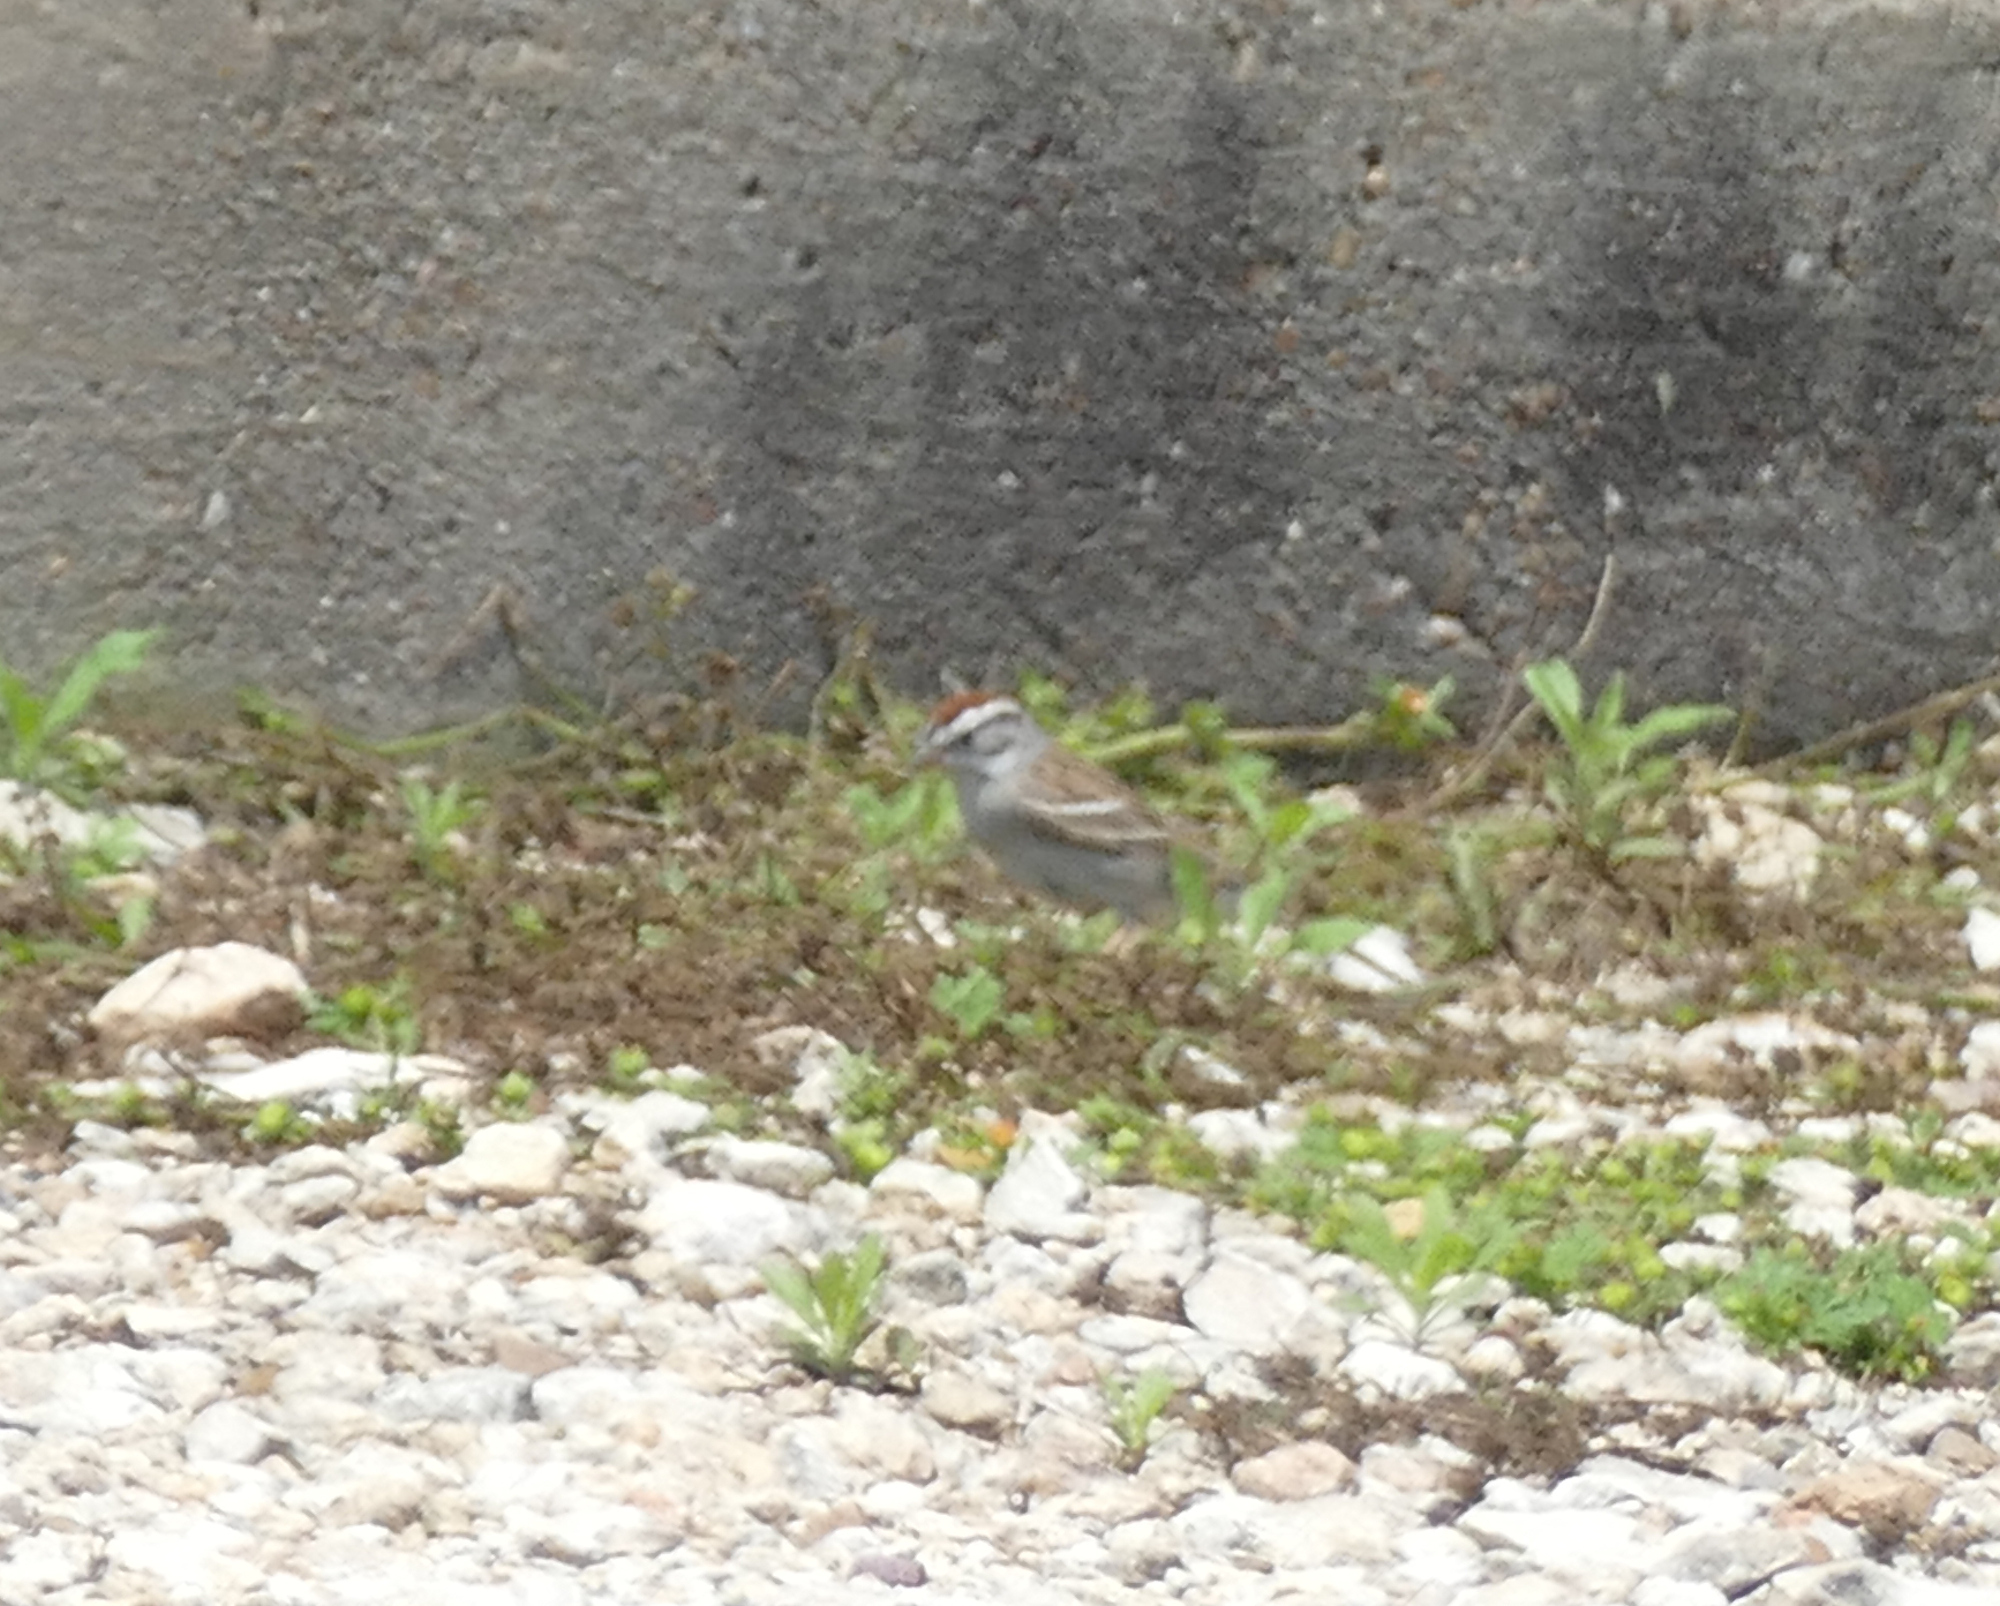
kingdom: Animalia
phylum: Chordata
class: Aves
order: Passeriformes
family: Passerellidae
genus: Spizella
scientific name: Spizella passerina
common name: Chipping sparrow
